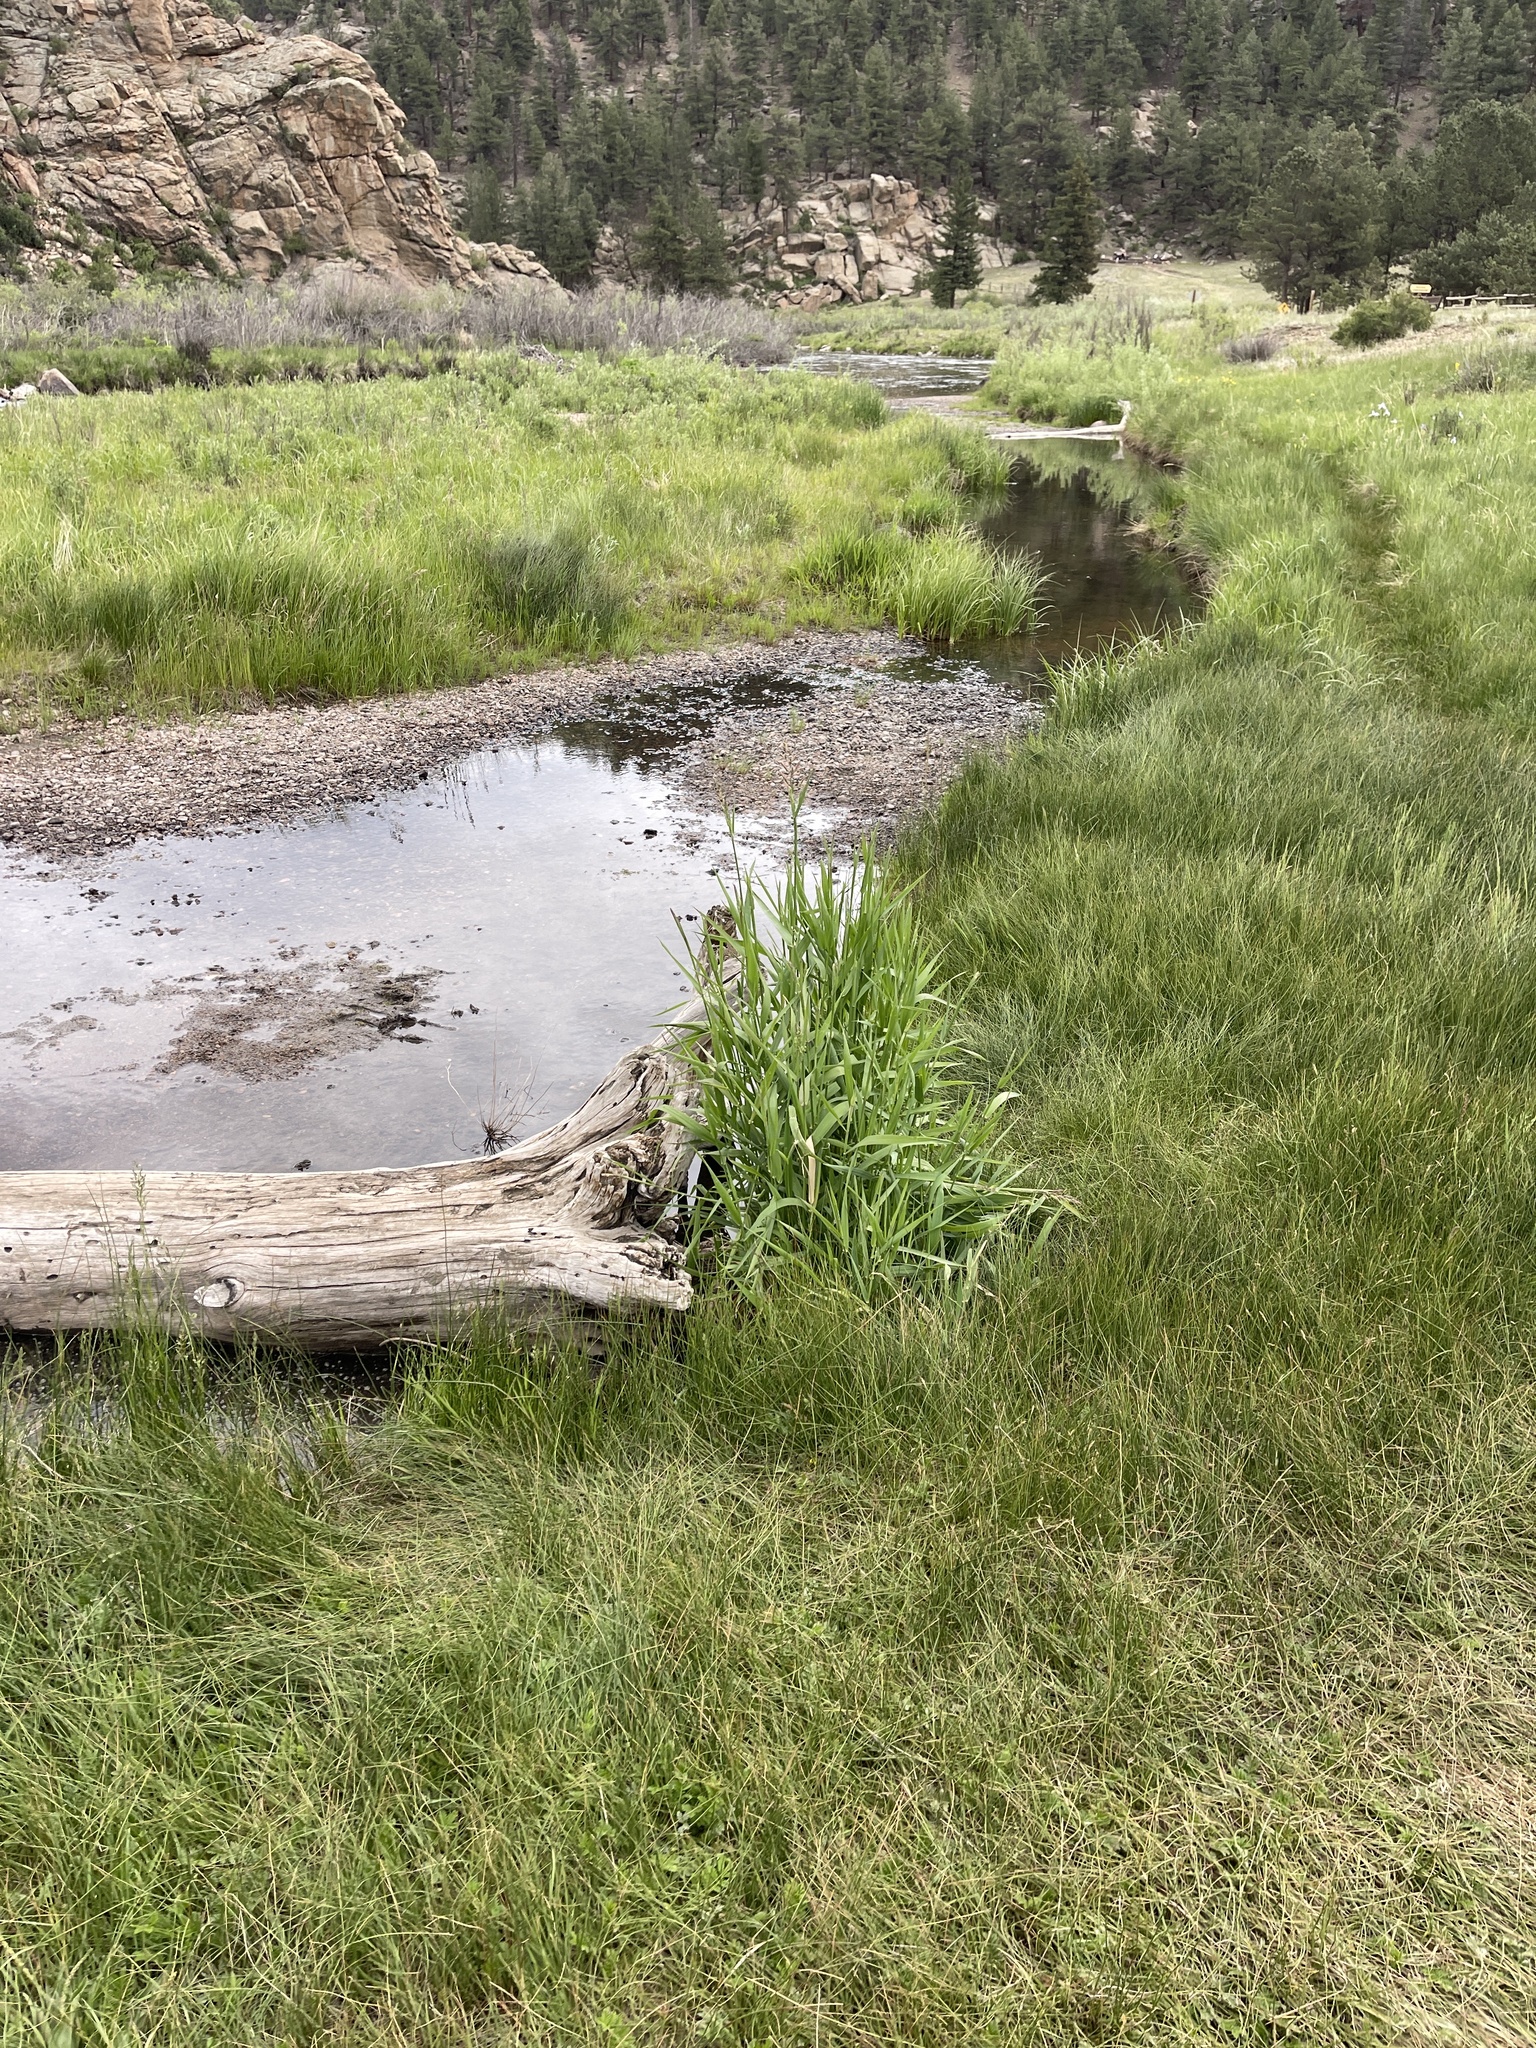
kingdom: Plantae
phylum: Tracheophyta
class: Liliopsida
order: Poales
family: Poaceae
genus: Phalaris
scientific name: Phalaris arundinacea
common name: Reed canary-grass
